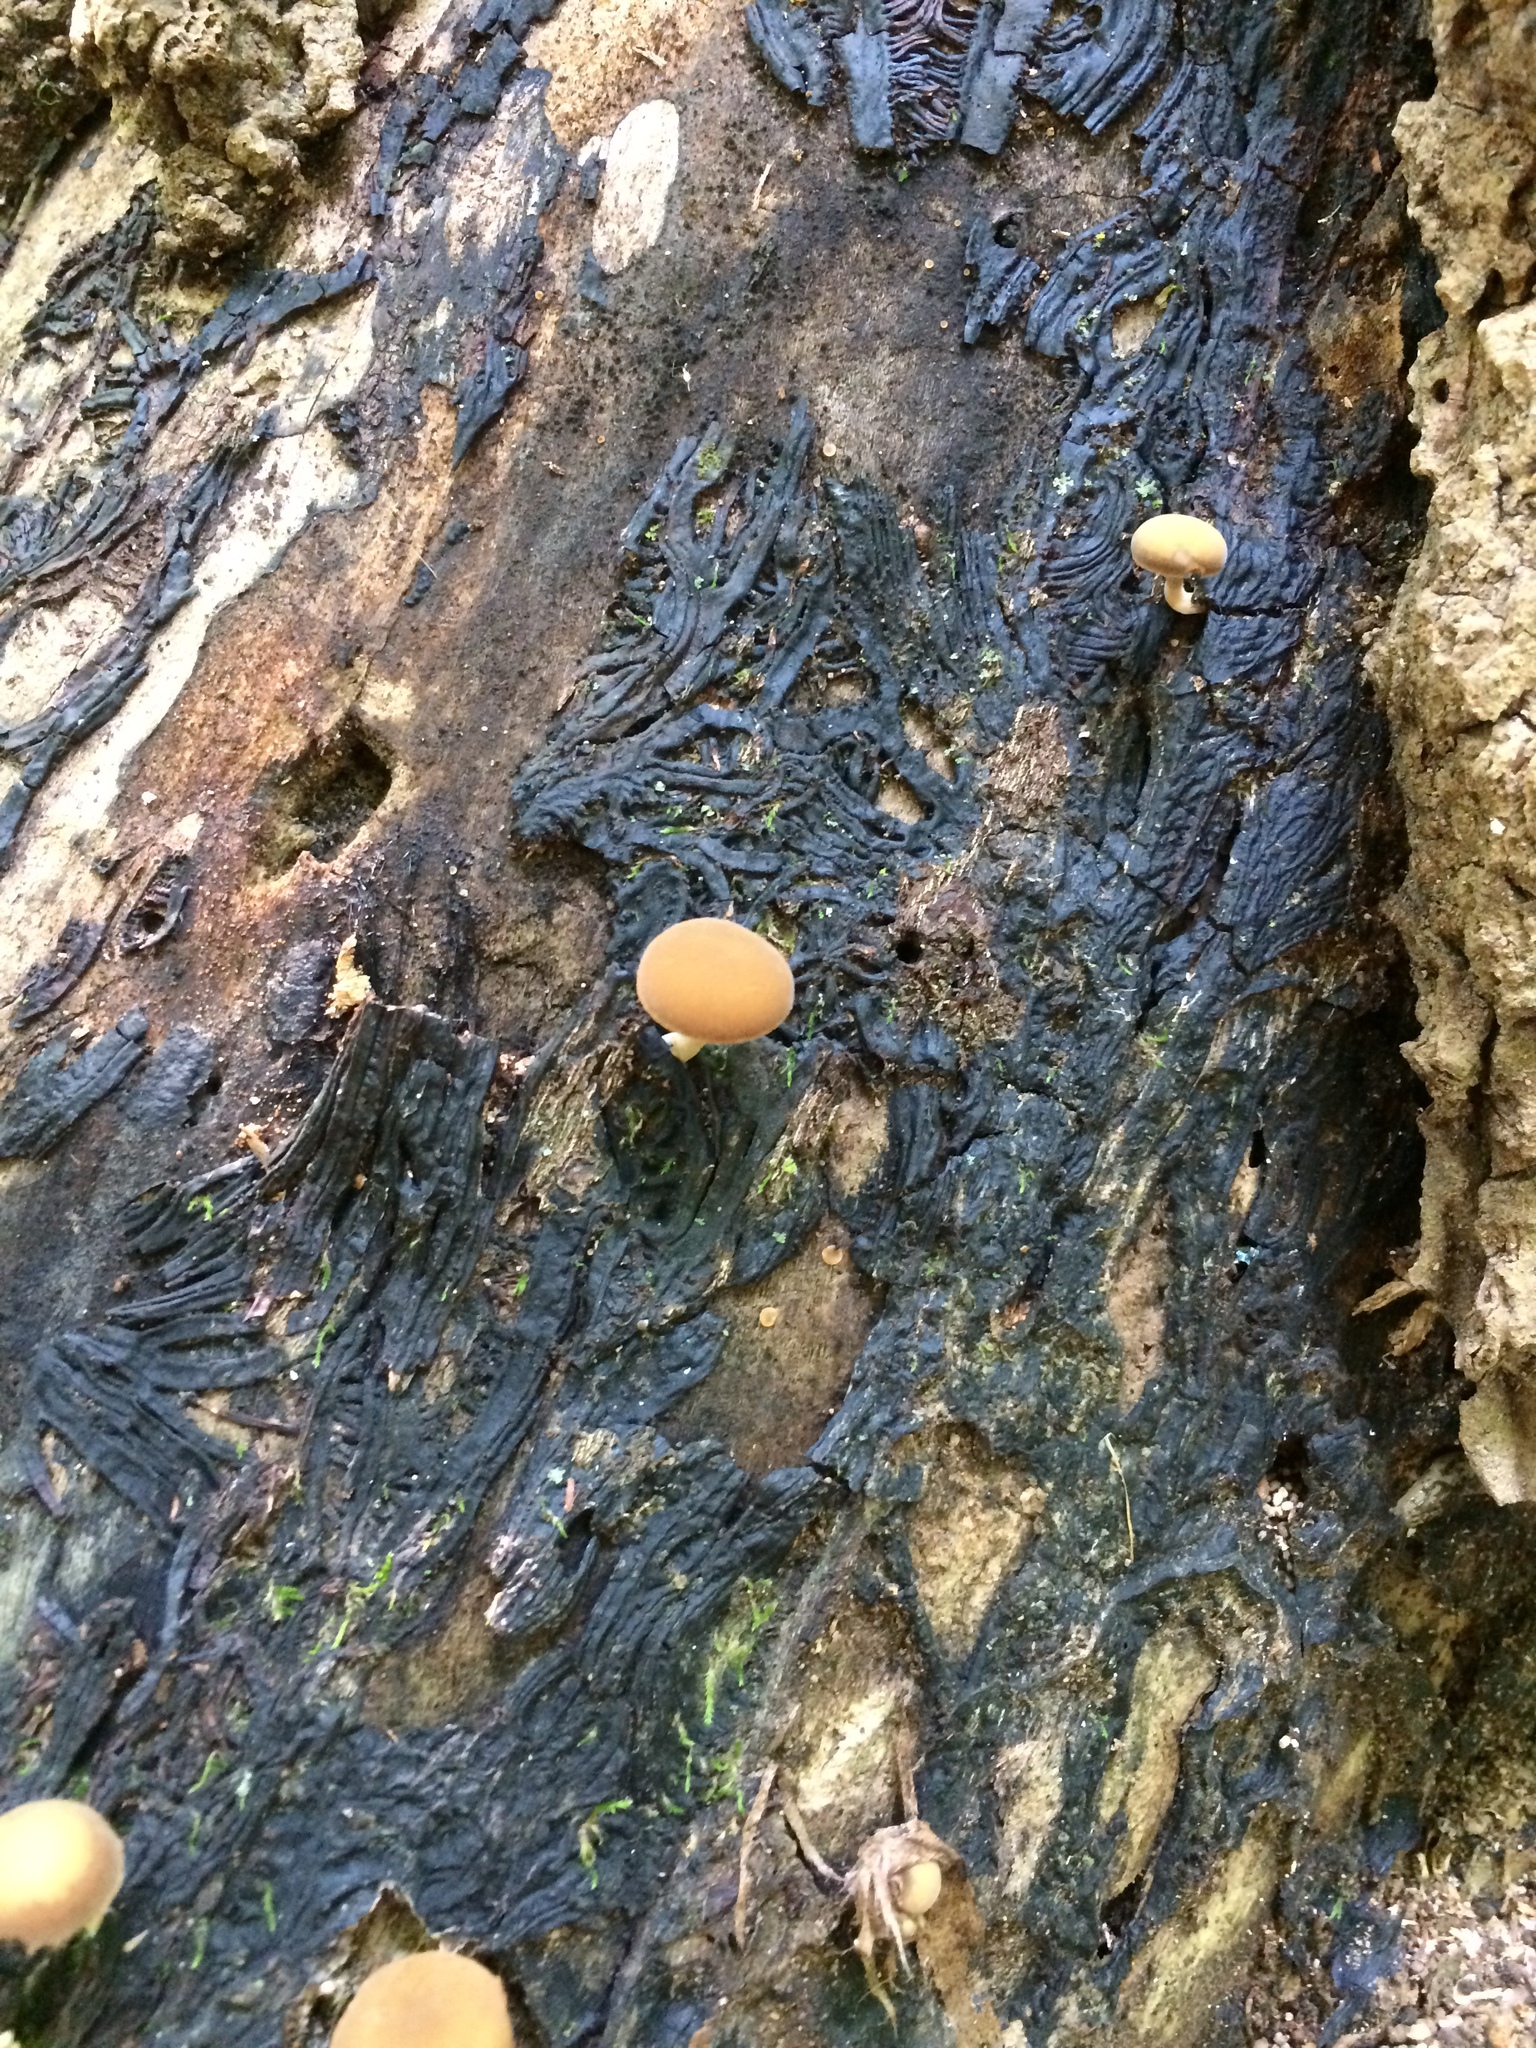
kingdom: Fungi
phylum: Basidiomycota
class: Agaricomycetes
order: Agaricales
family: Crepidotaceae
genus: Simocybe
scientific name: Simocybe centunculus
